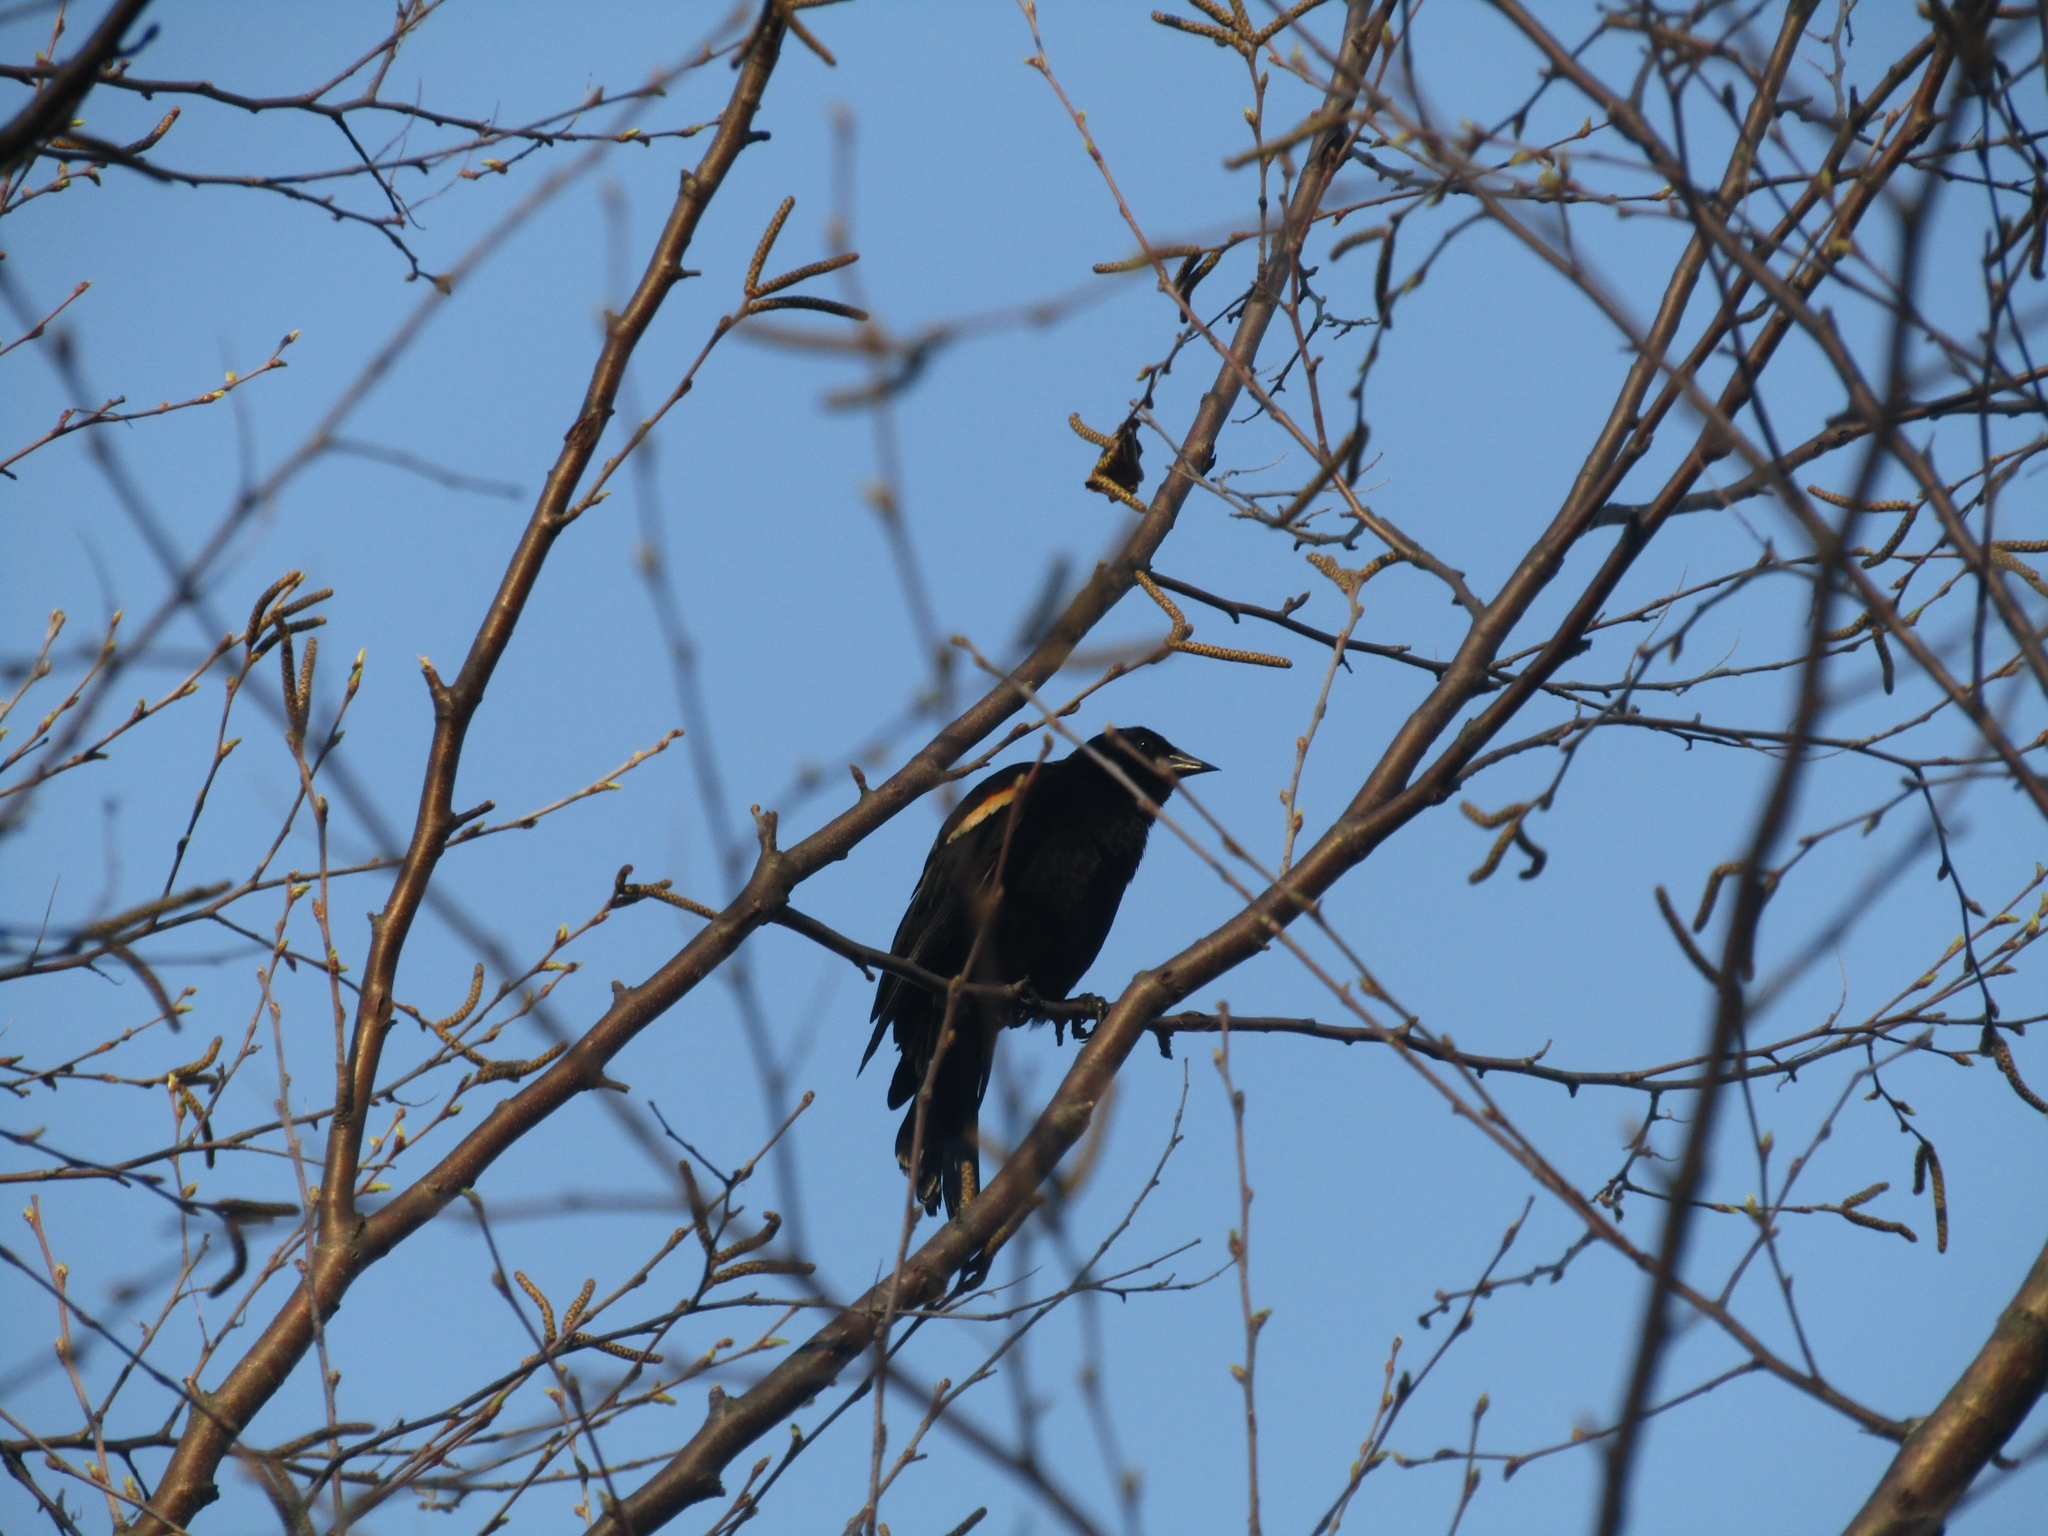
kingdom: Animalia
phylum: Chordata
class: Aves
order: Passeriformes
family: Icteridae
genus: Agelaius
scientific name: Agelaius phoeniceus
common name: Red-winged blackbird
